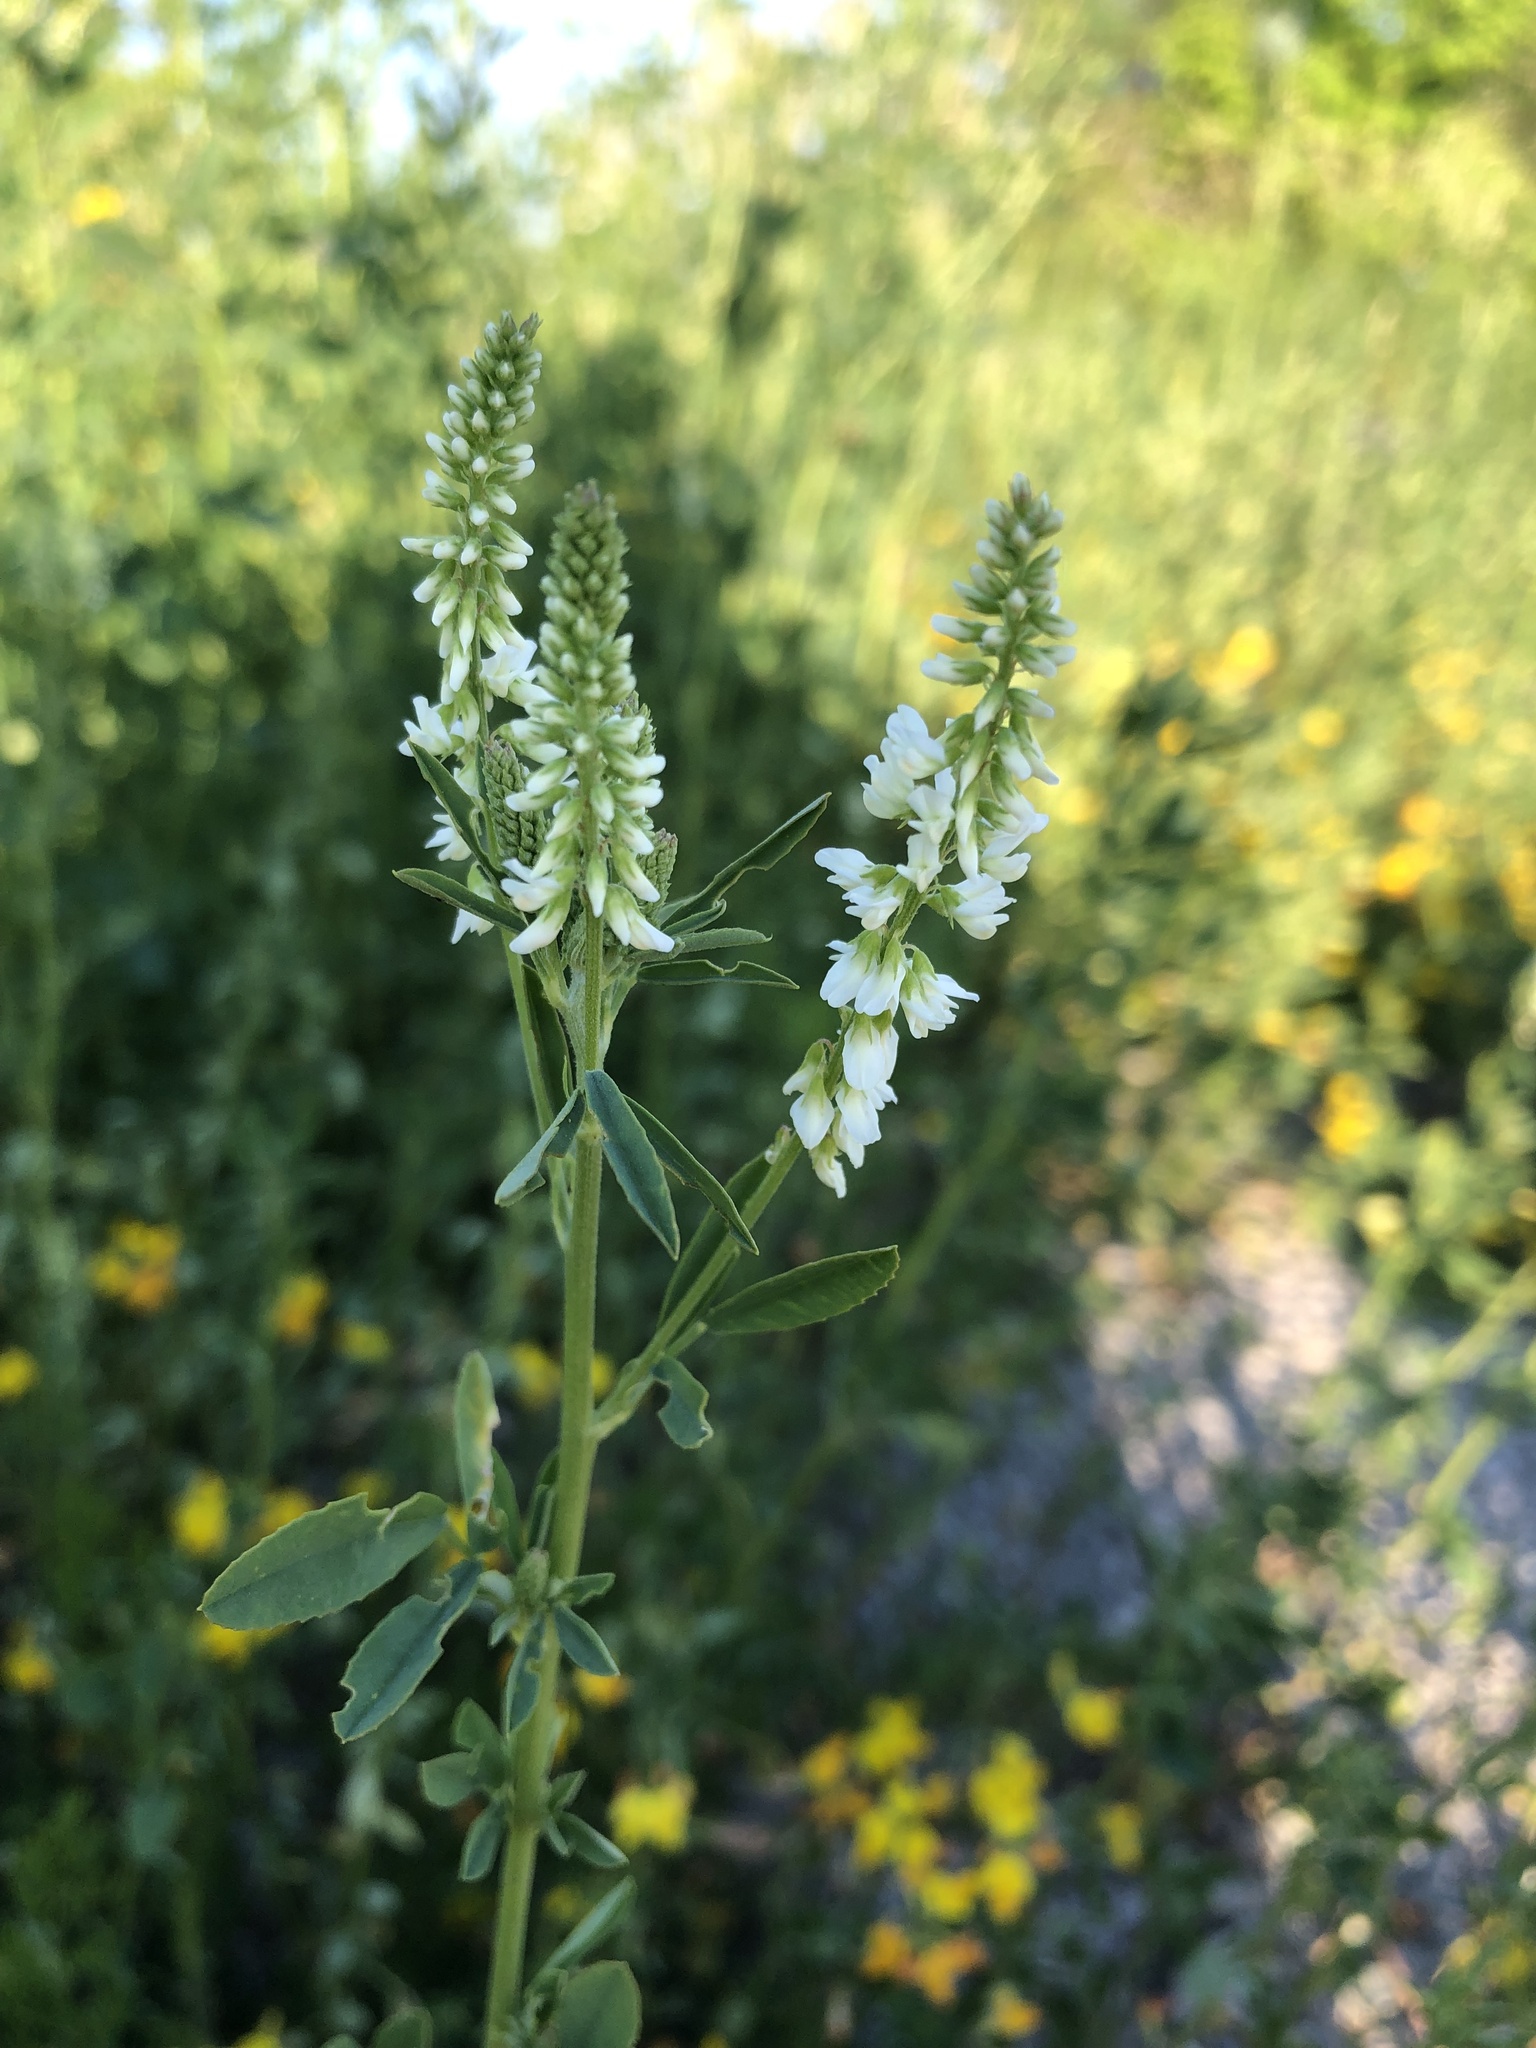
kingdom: Plantae
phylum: Tracheophyta
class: Magnoliopsida
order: Fabales
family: Fabaceae
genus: Melilotus
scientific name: Melilotus albus
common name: White melilot
